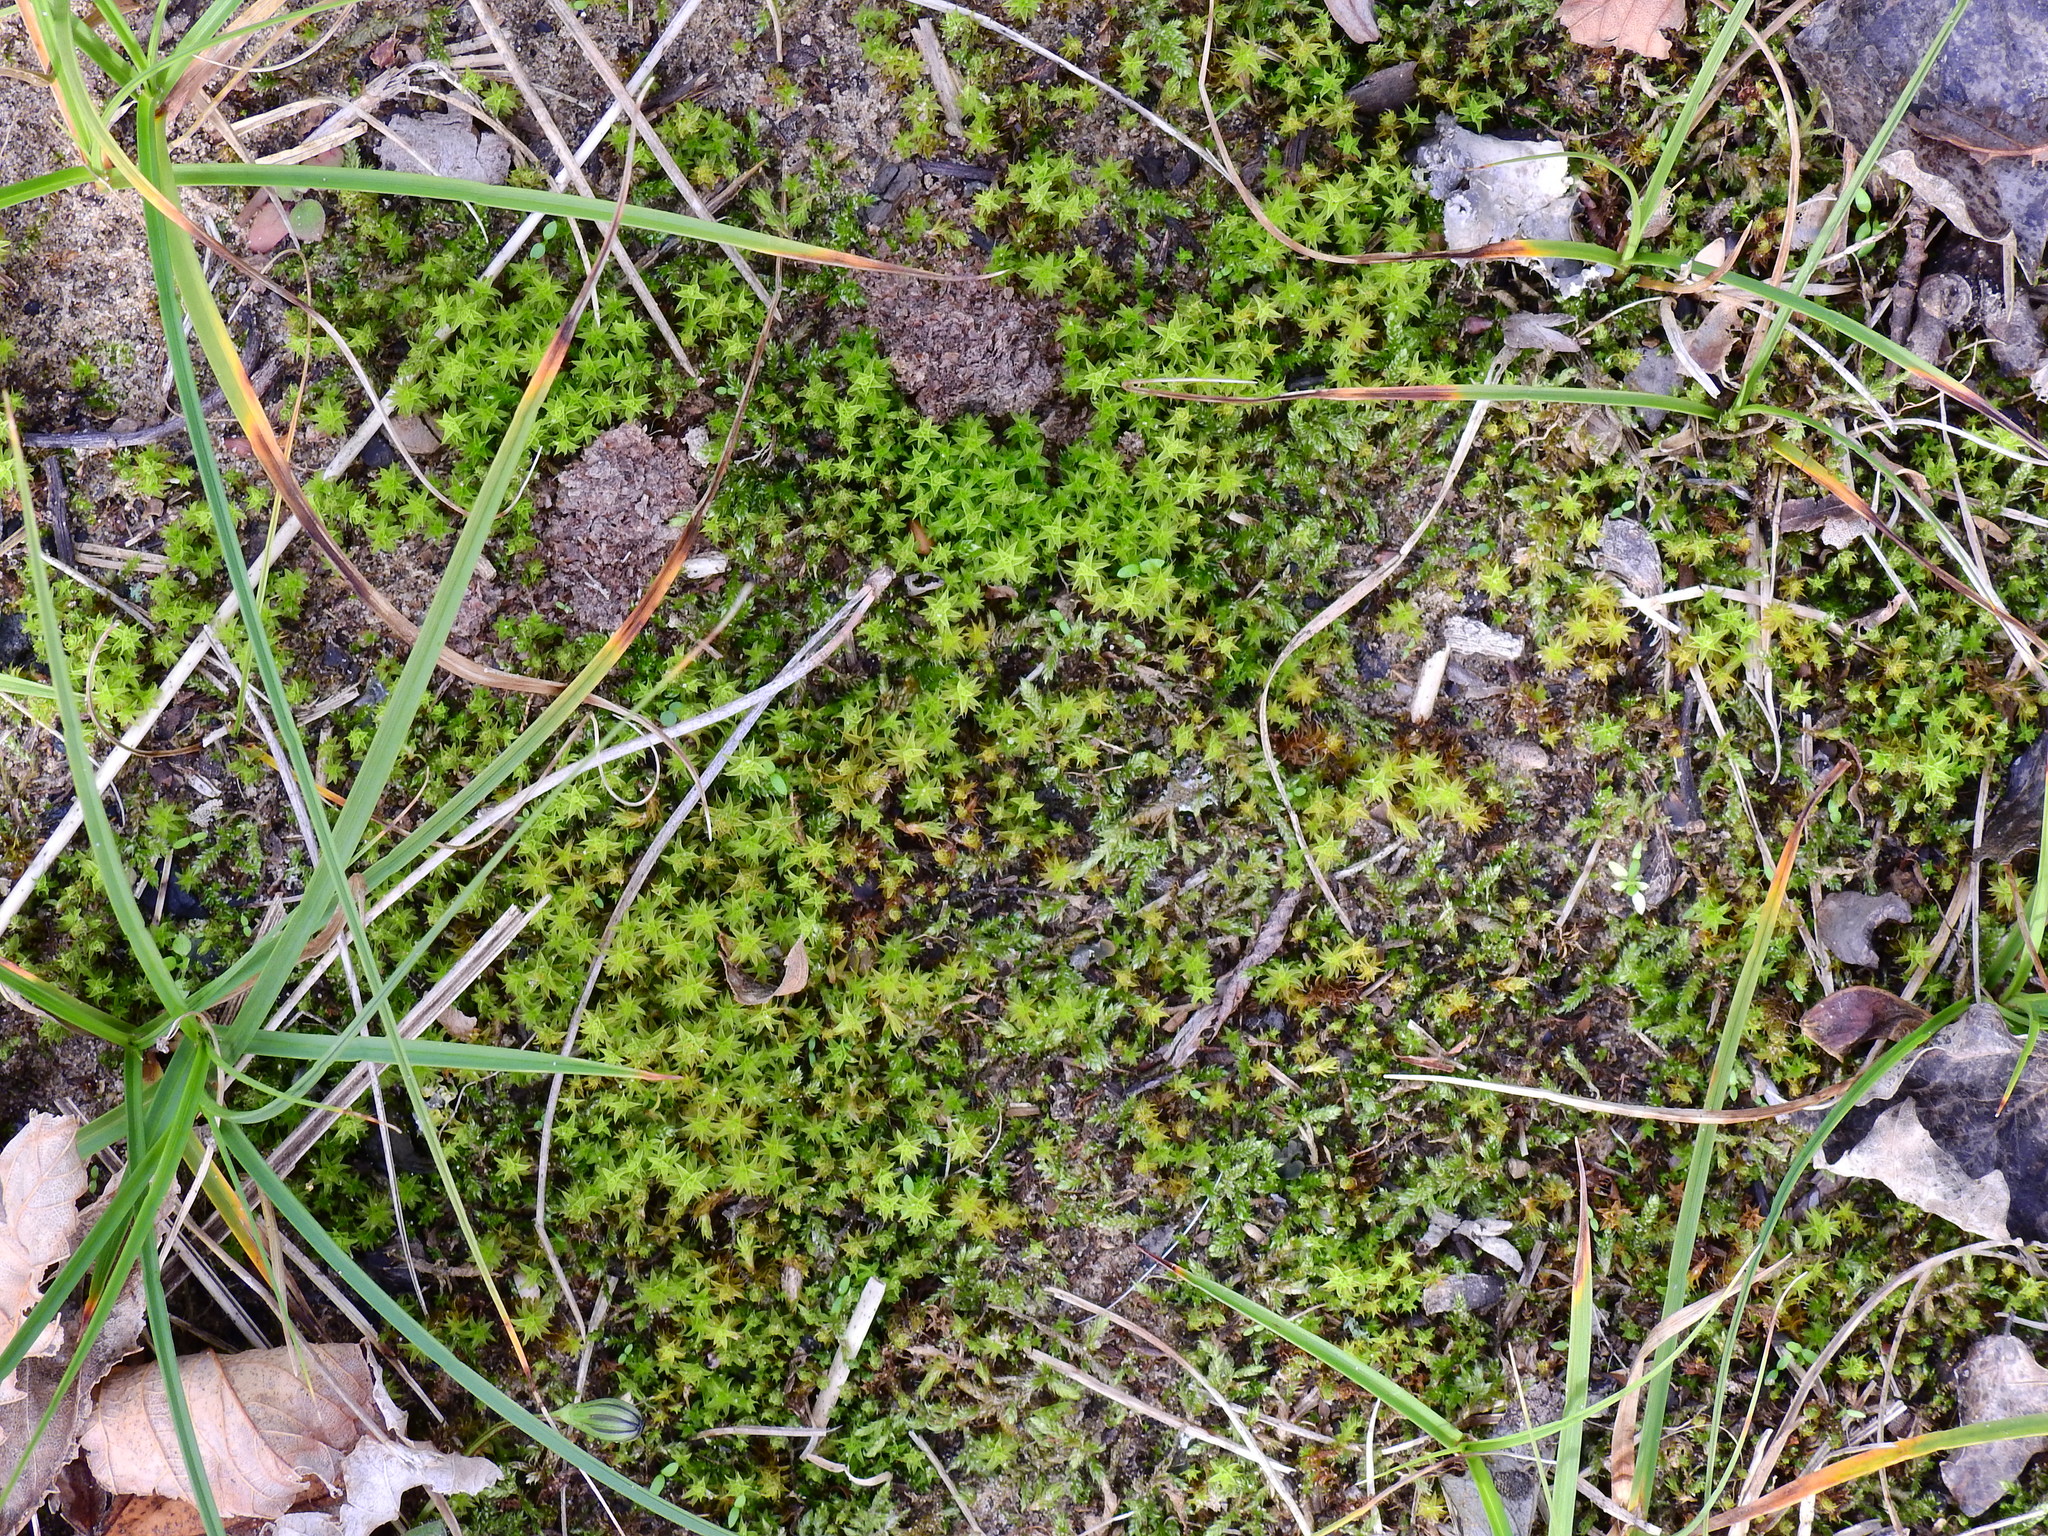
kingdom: Plantae
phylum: Bryophyta
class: Bryopsida
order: Pottiales
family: Pottiaceae
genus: Syntrichia
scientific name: Syntrichia ruralis
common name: Sidewalk screw moss
